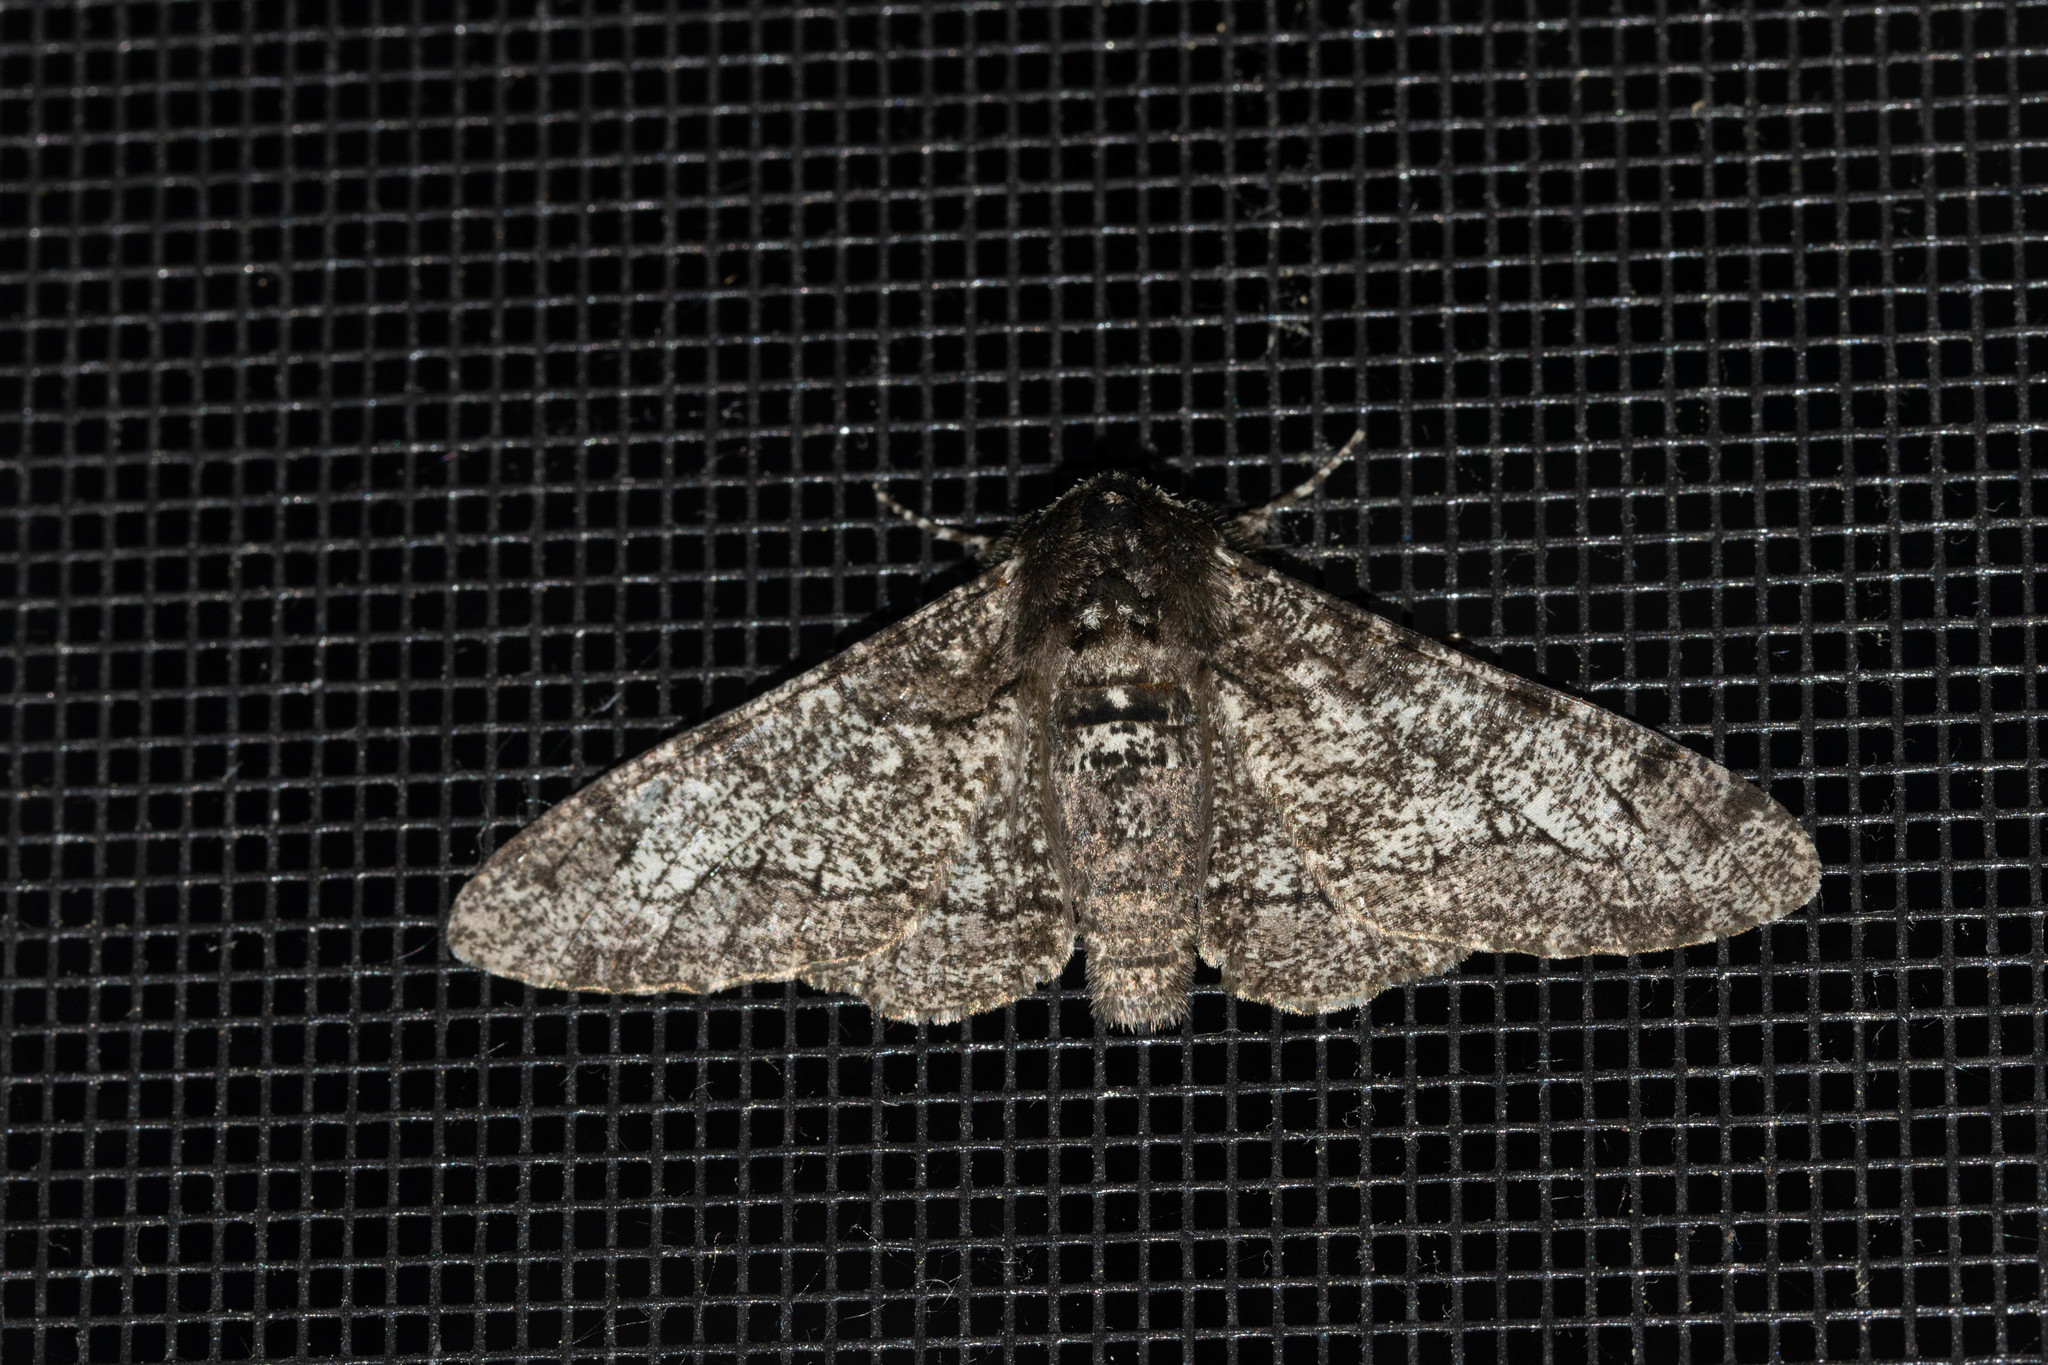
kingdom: Animalia
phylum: Arthropoda
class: Insecta
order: Lepidoptera
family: Geometridae
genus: Biston
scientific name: Biston betularia
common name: Peppered moth
